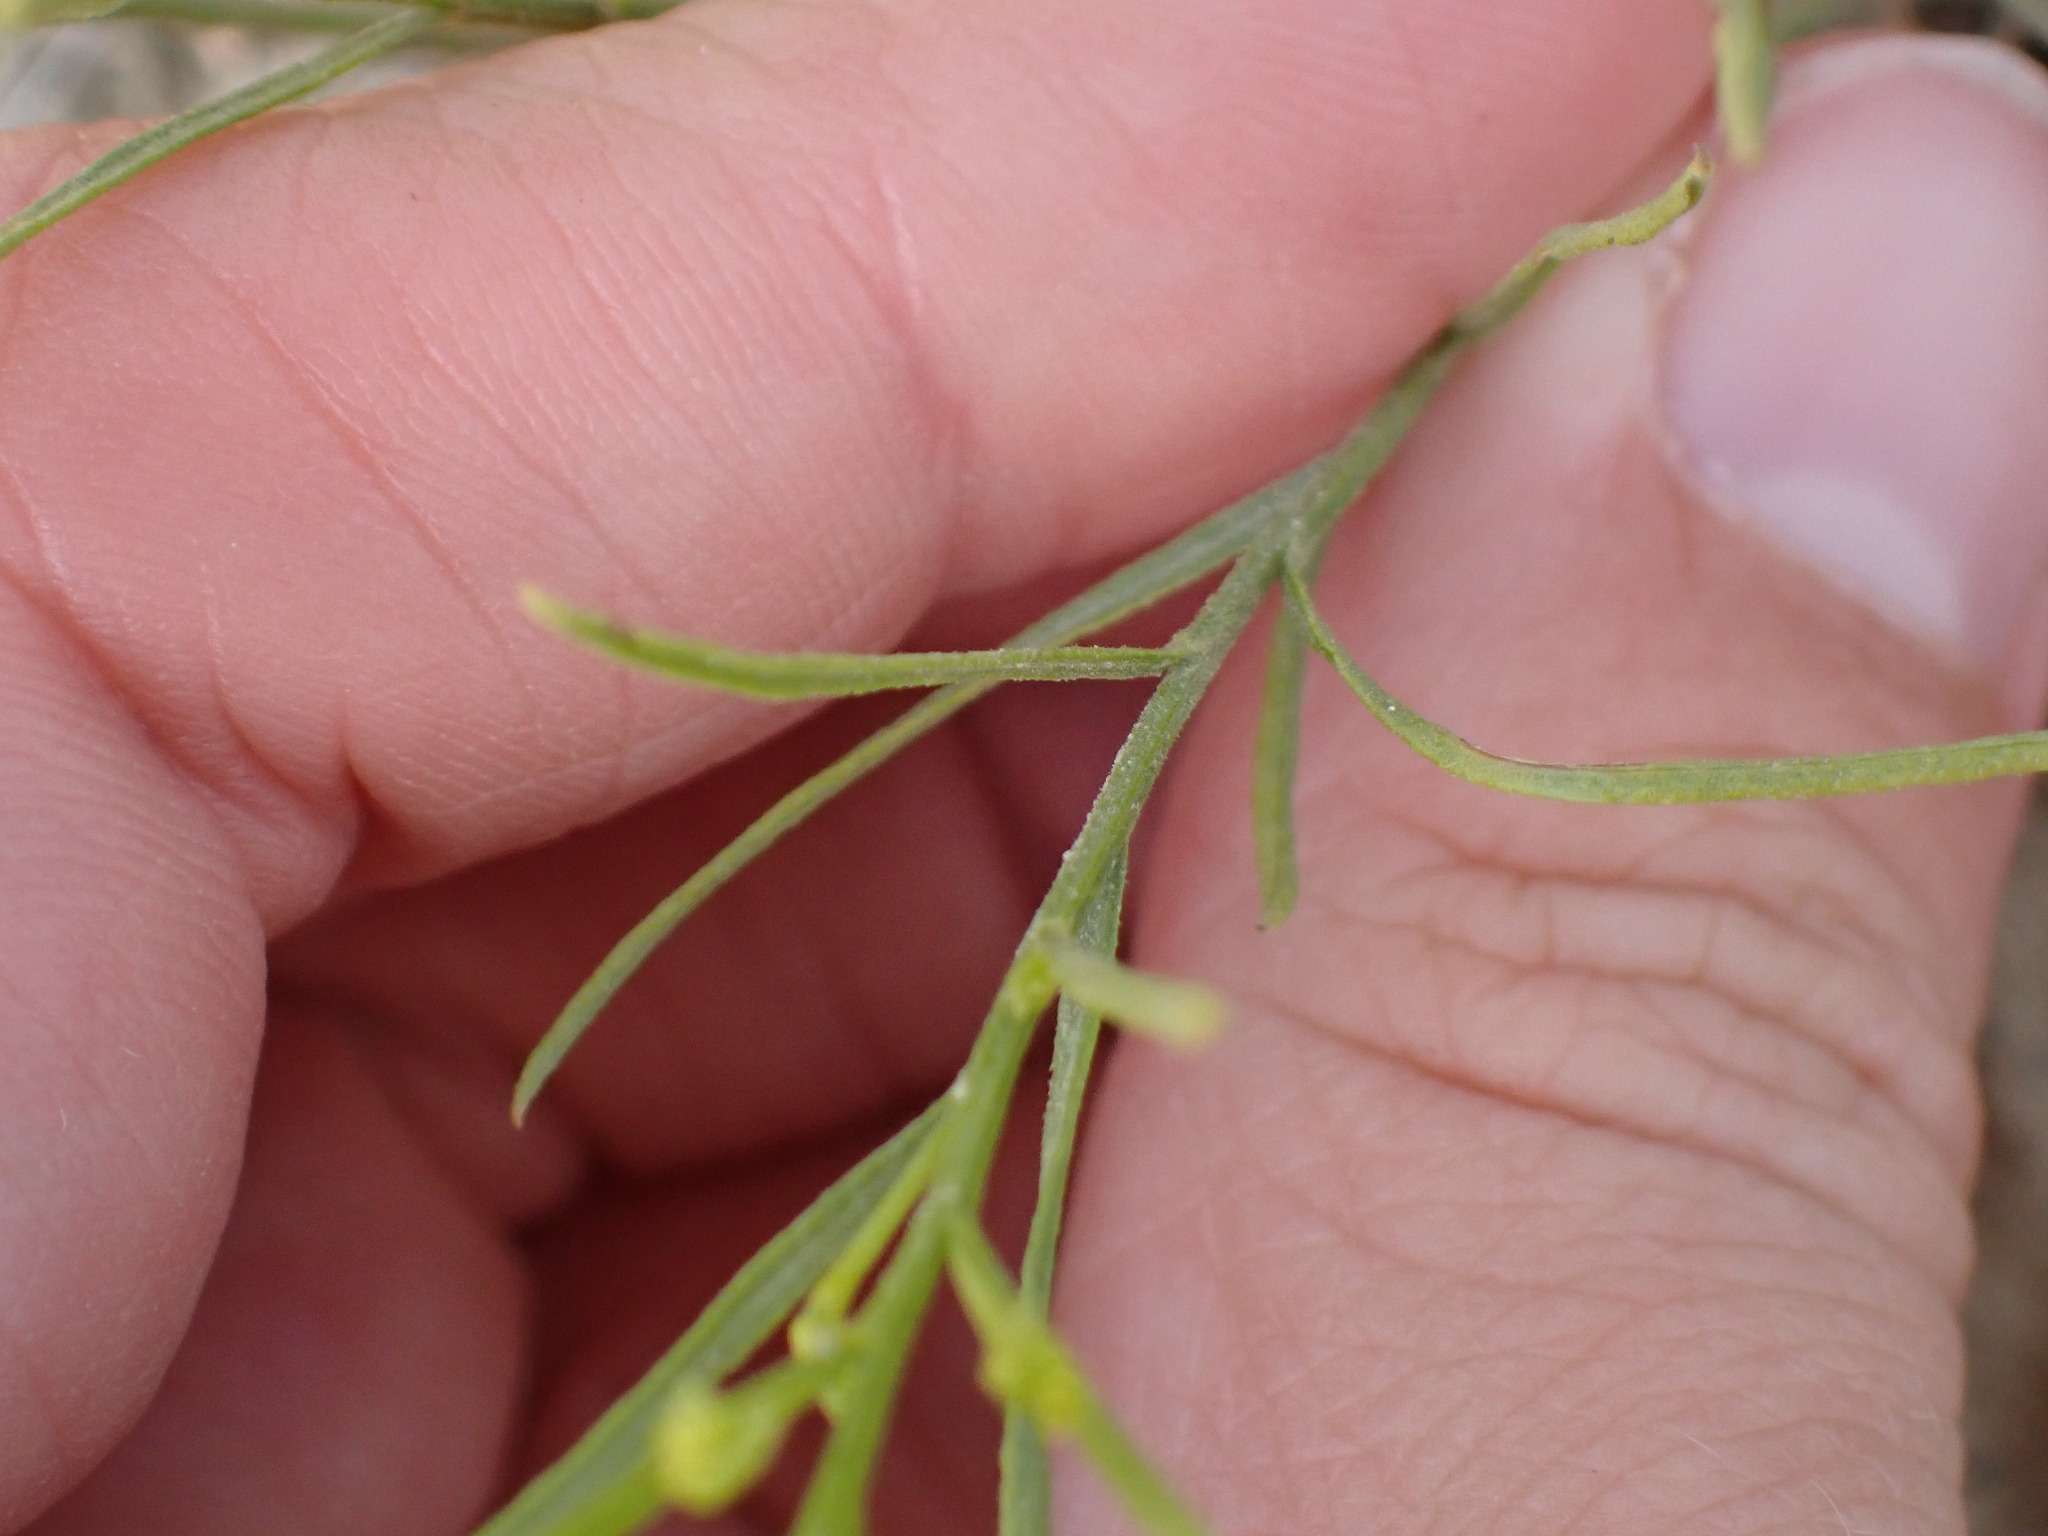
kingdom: Plantae
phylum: Tracheophyta
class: Magnoliopsida
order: Asterales
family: Asteraceae
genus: Gutierrezia
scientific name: Gutierrezia sarothrae
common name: Broom snakeweed
